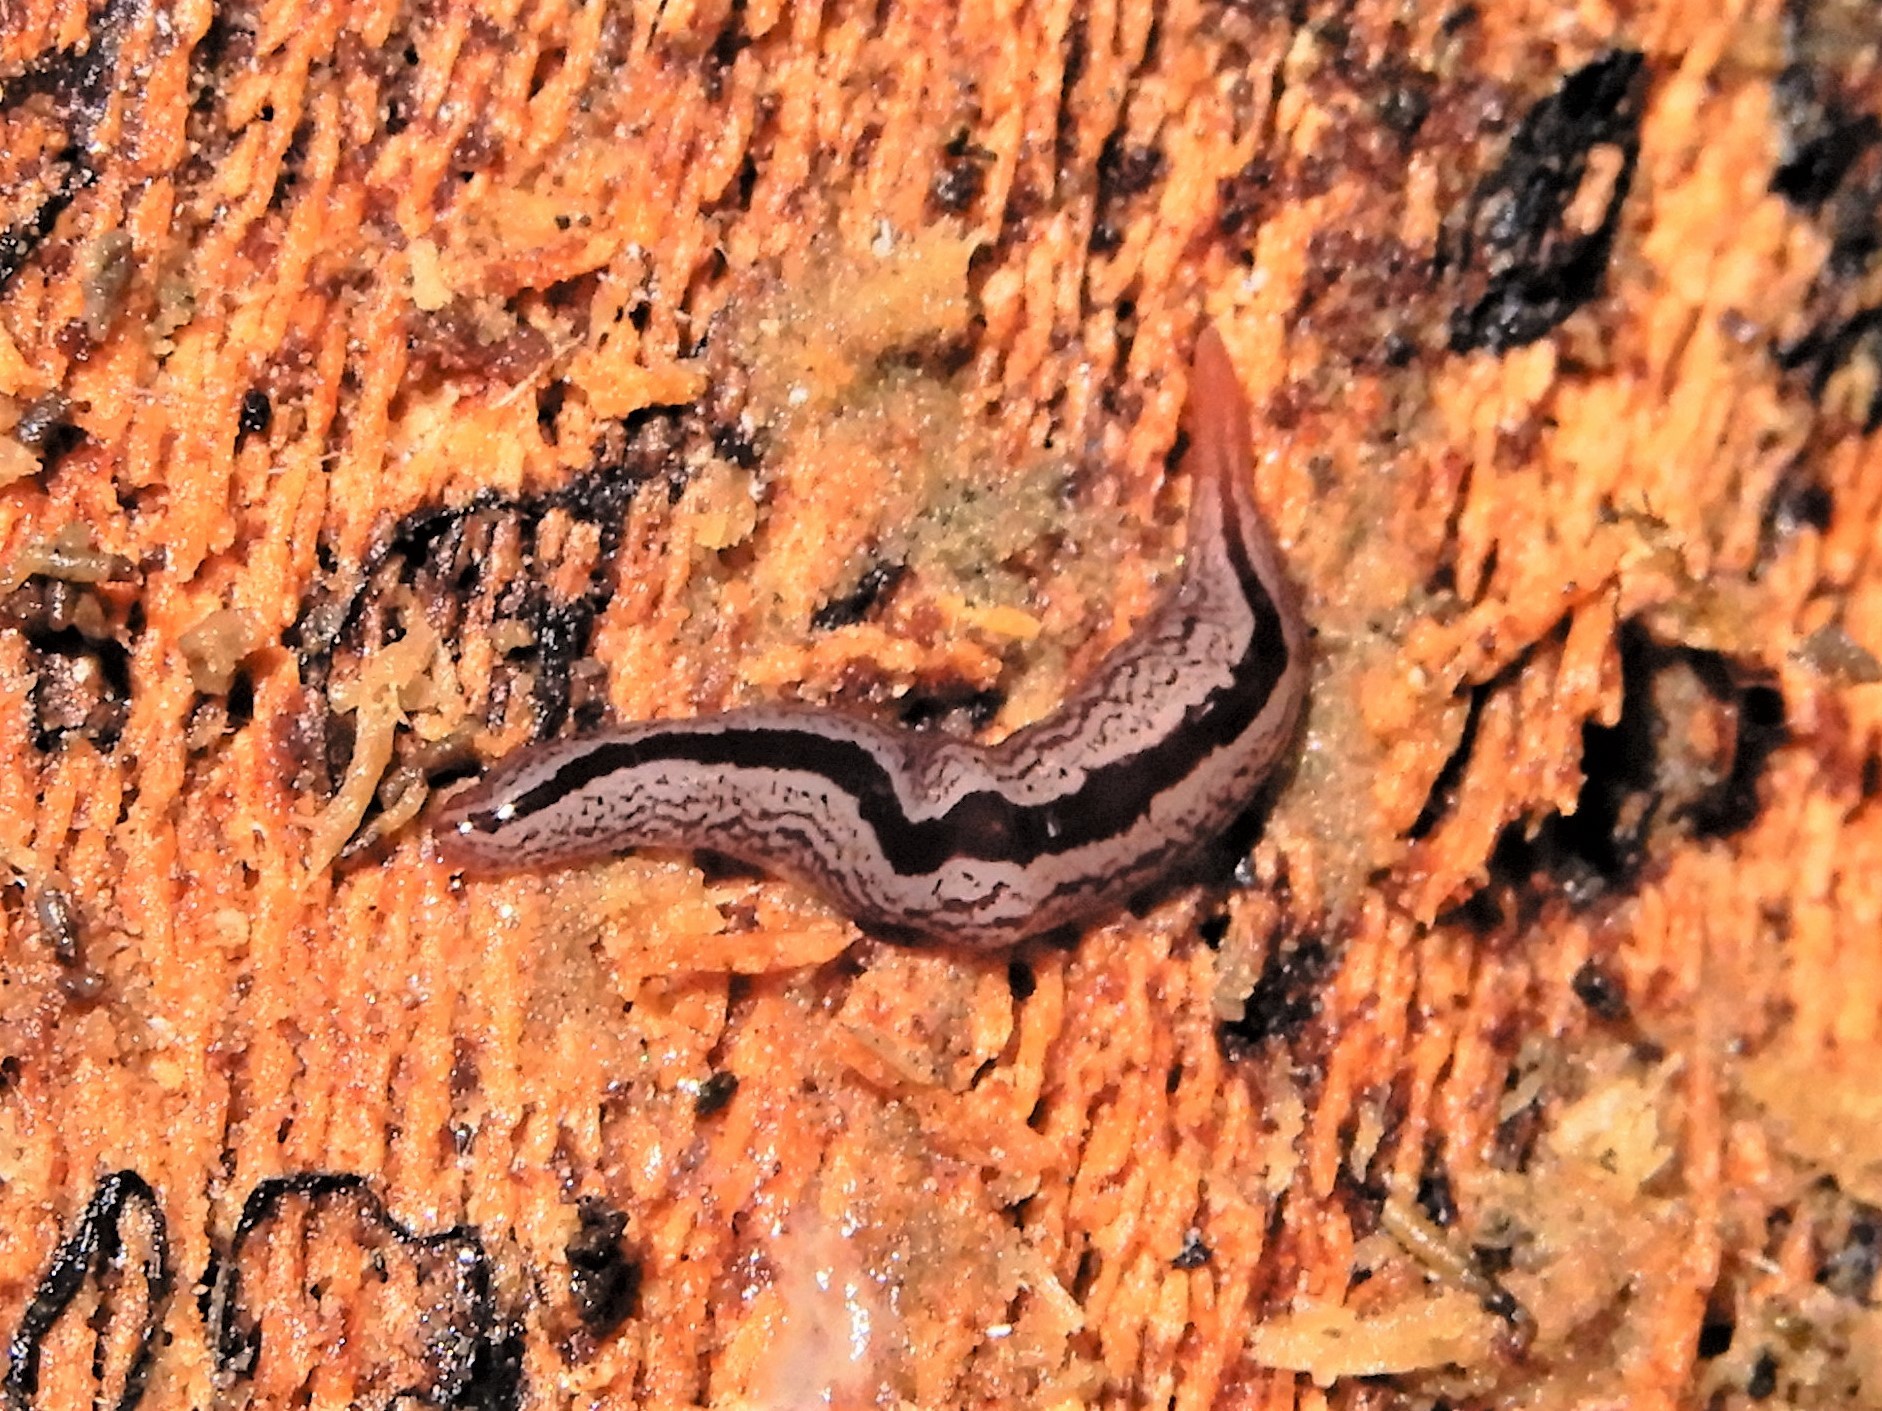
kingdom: Animalia
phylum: Platyhelminthes
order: Tricladida
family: Geoplanidae
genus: Artioposthia
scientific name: Artioposthia exulans
